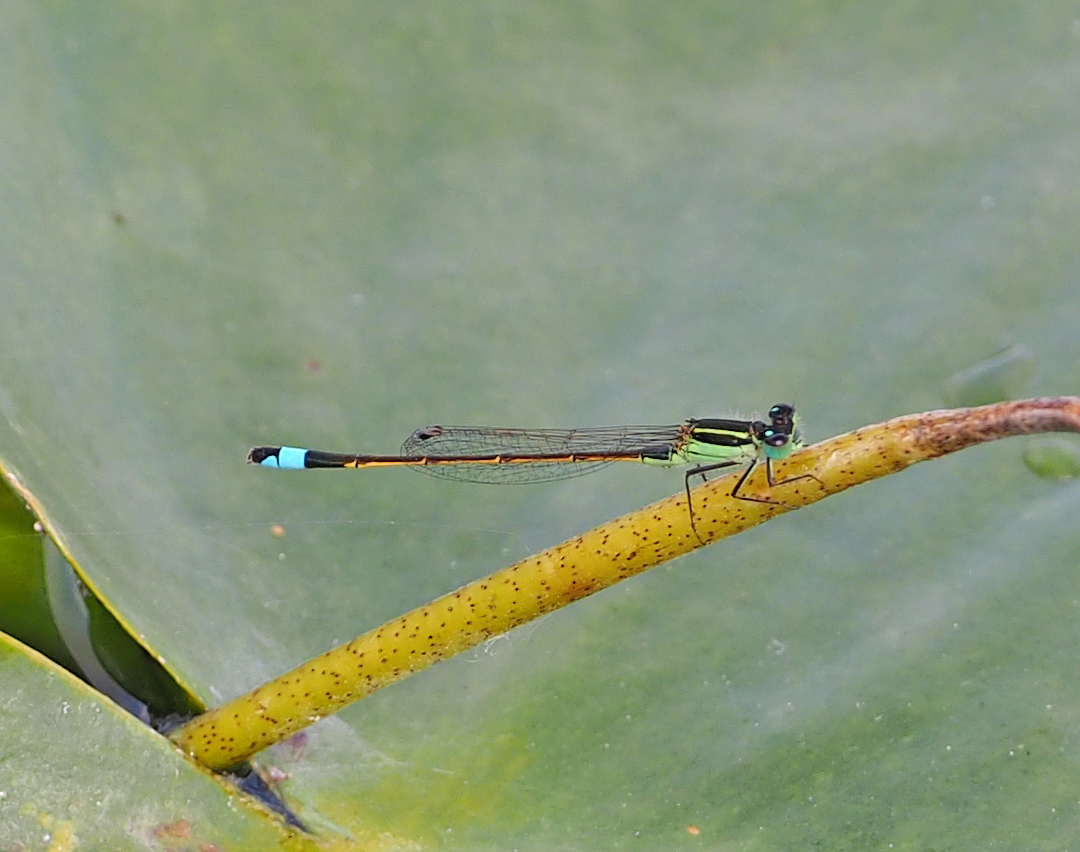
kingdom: Animalia
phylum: Arthropoda
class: Insecta
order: Odonata
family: Coenagrionidae
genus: Ischnura
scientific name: Ischnura ramburii
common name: Rambur's forktail
